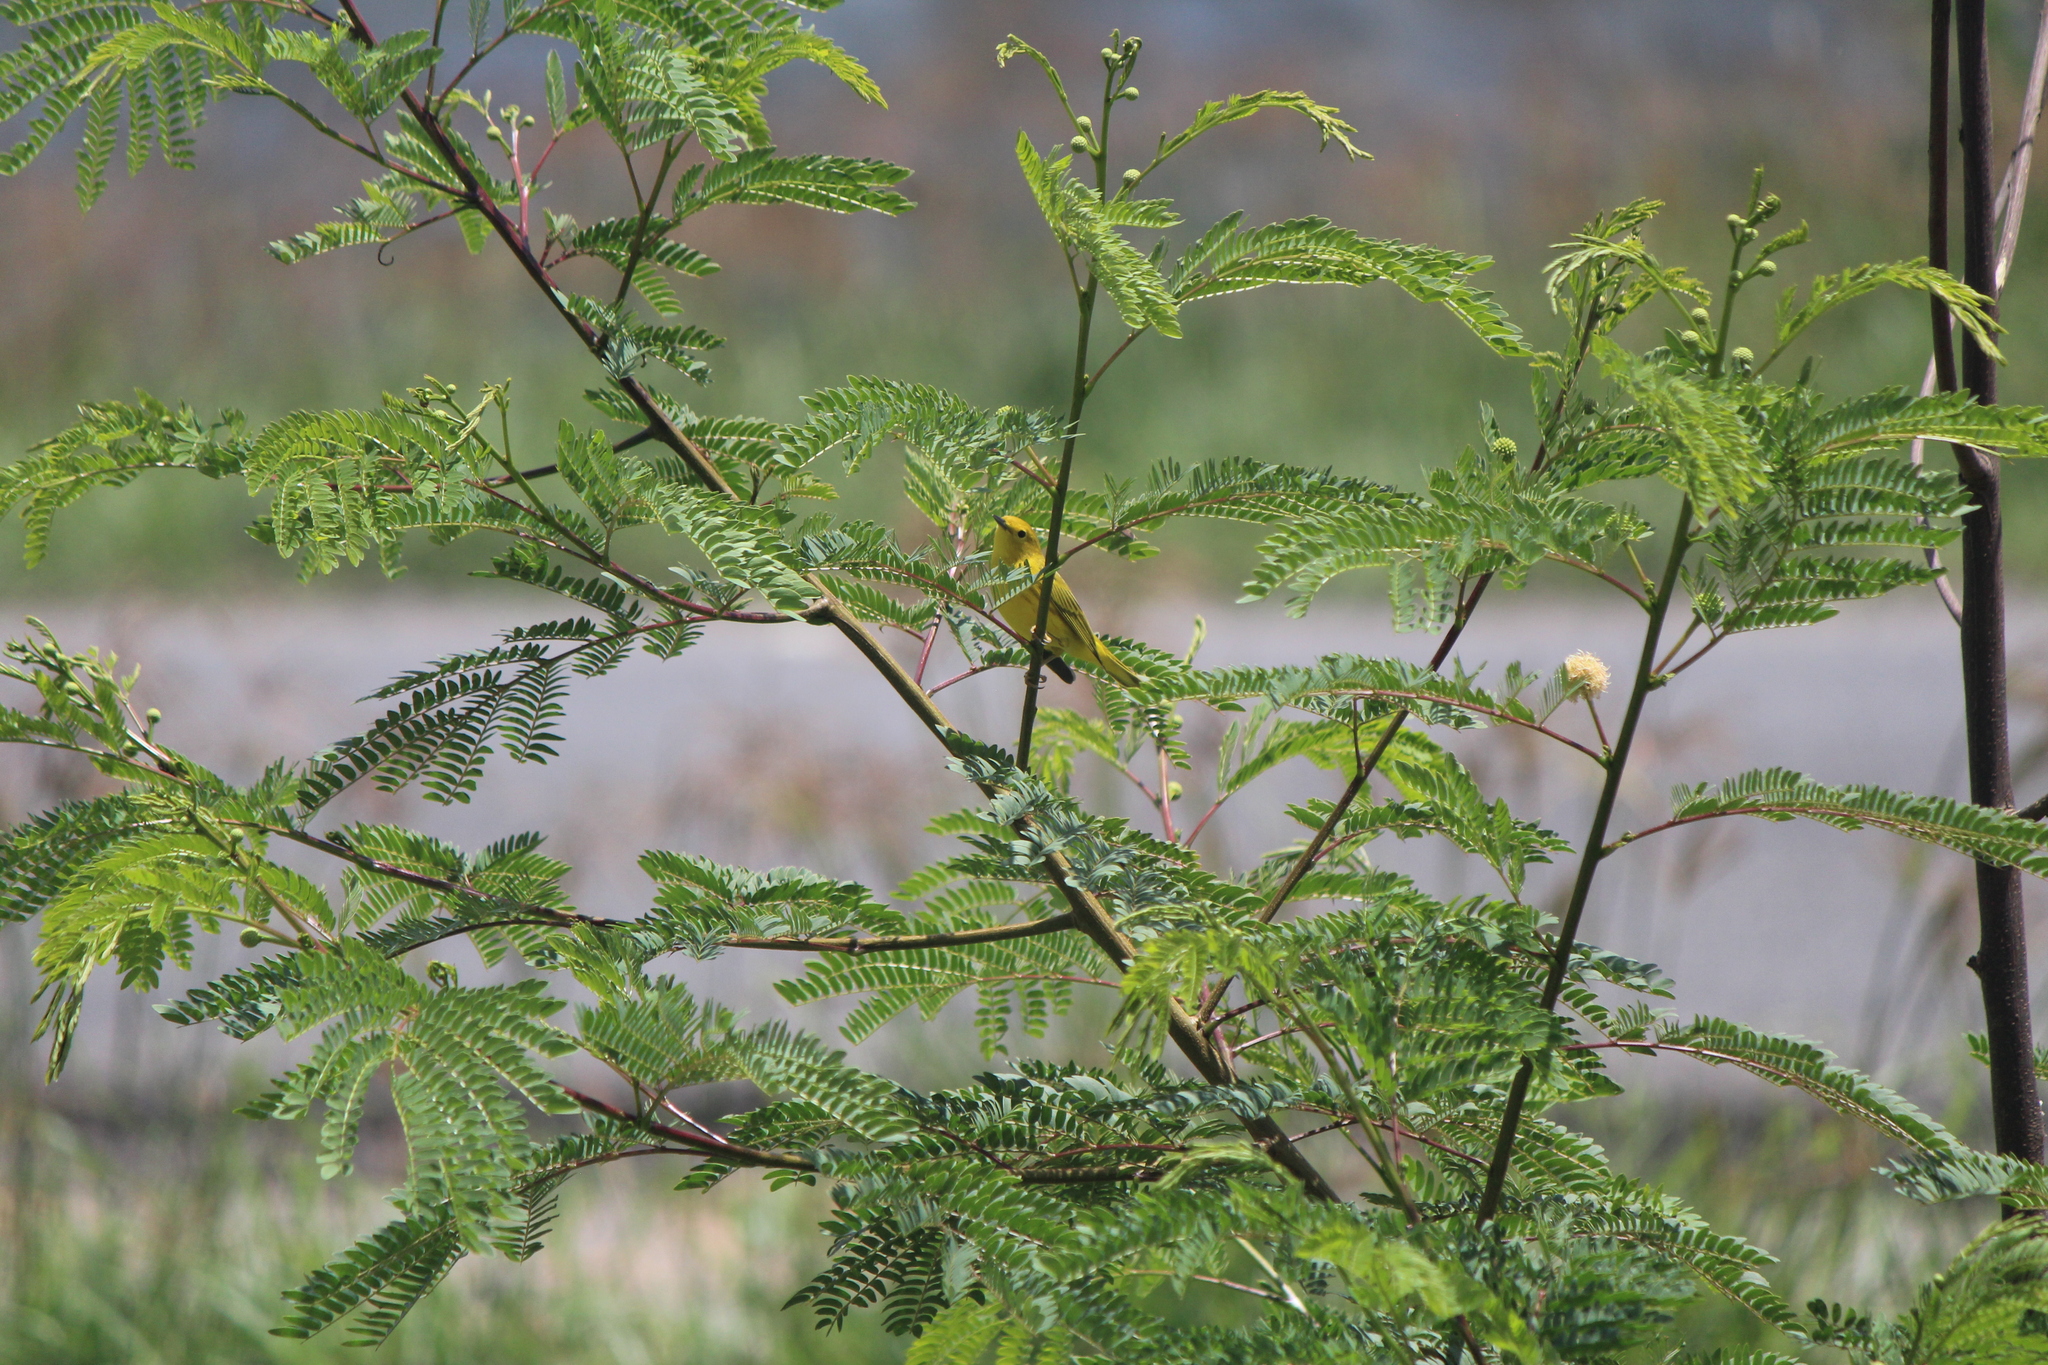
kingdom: Animalia
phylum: Chordata
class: Aves
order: Passeriformes
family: Parulidae
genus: Setophaga
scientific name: Setophaga petechia
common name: Yellow warbler
